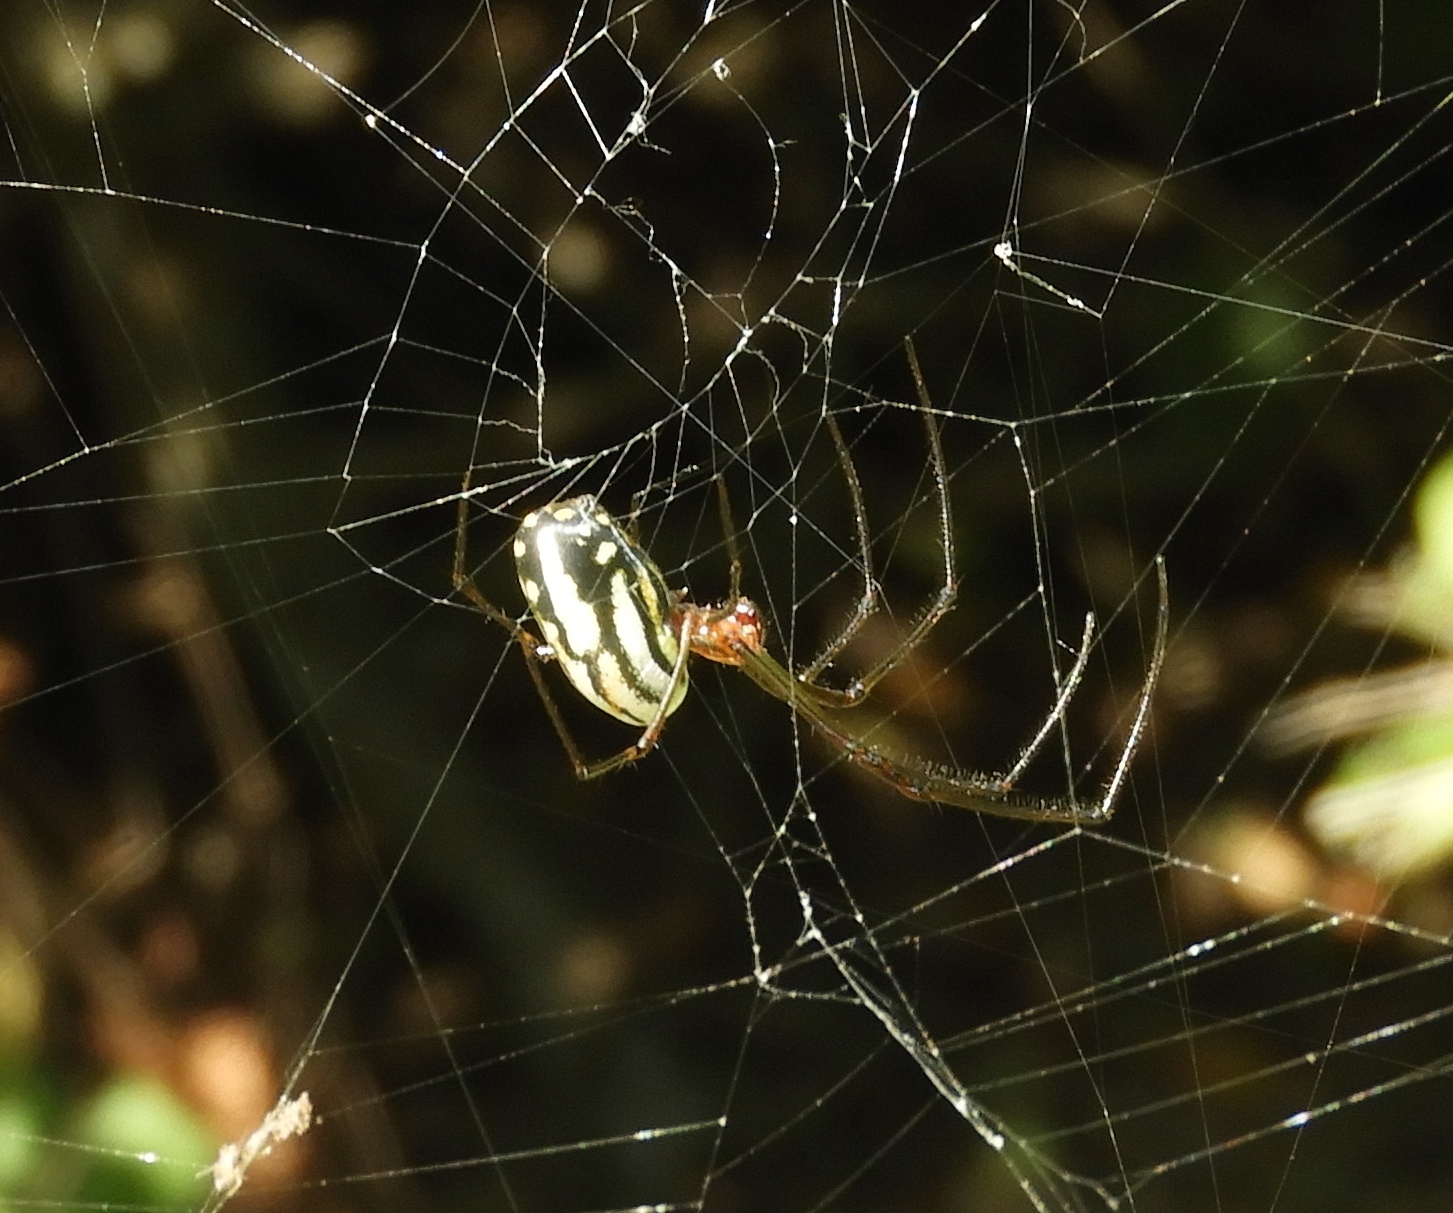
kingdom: Animalia
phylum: Arthropoda
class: Arachnida
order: Araneae
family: Tetragnathidae
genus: Leucauge
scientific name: Leucauge
